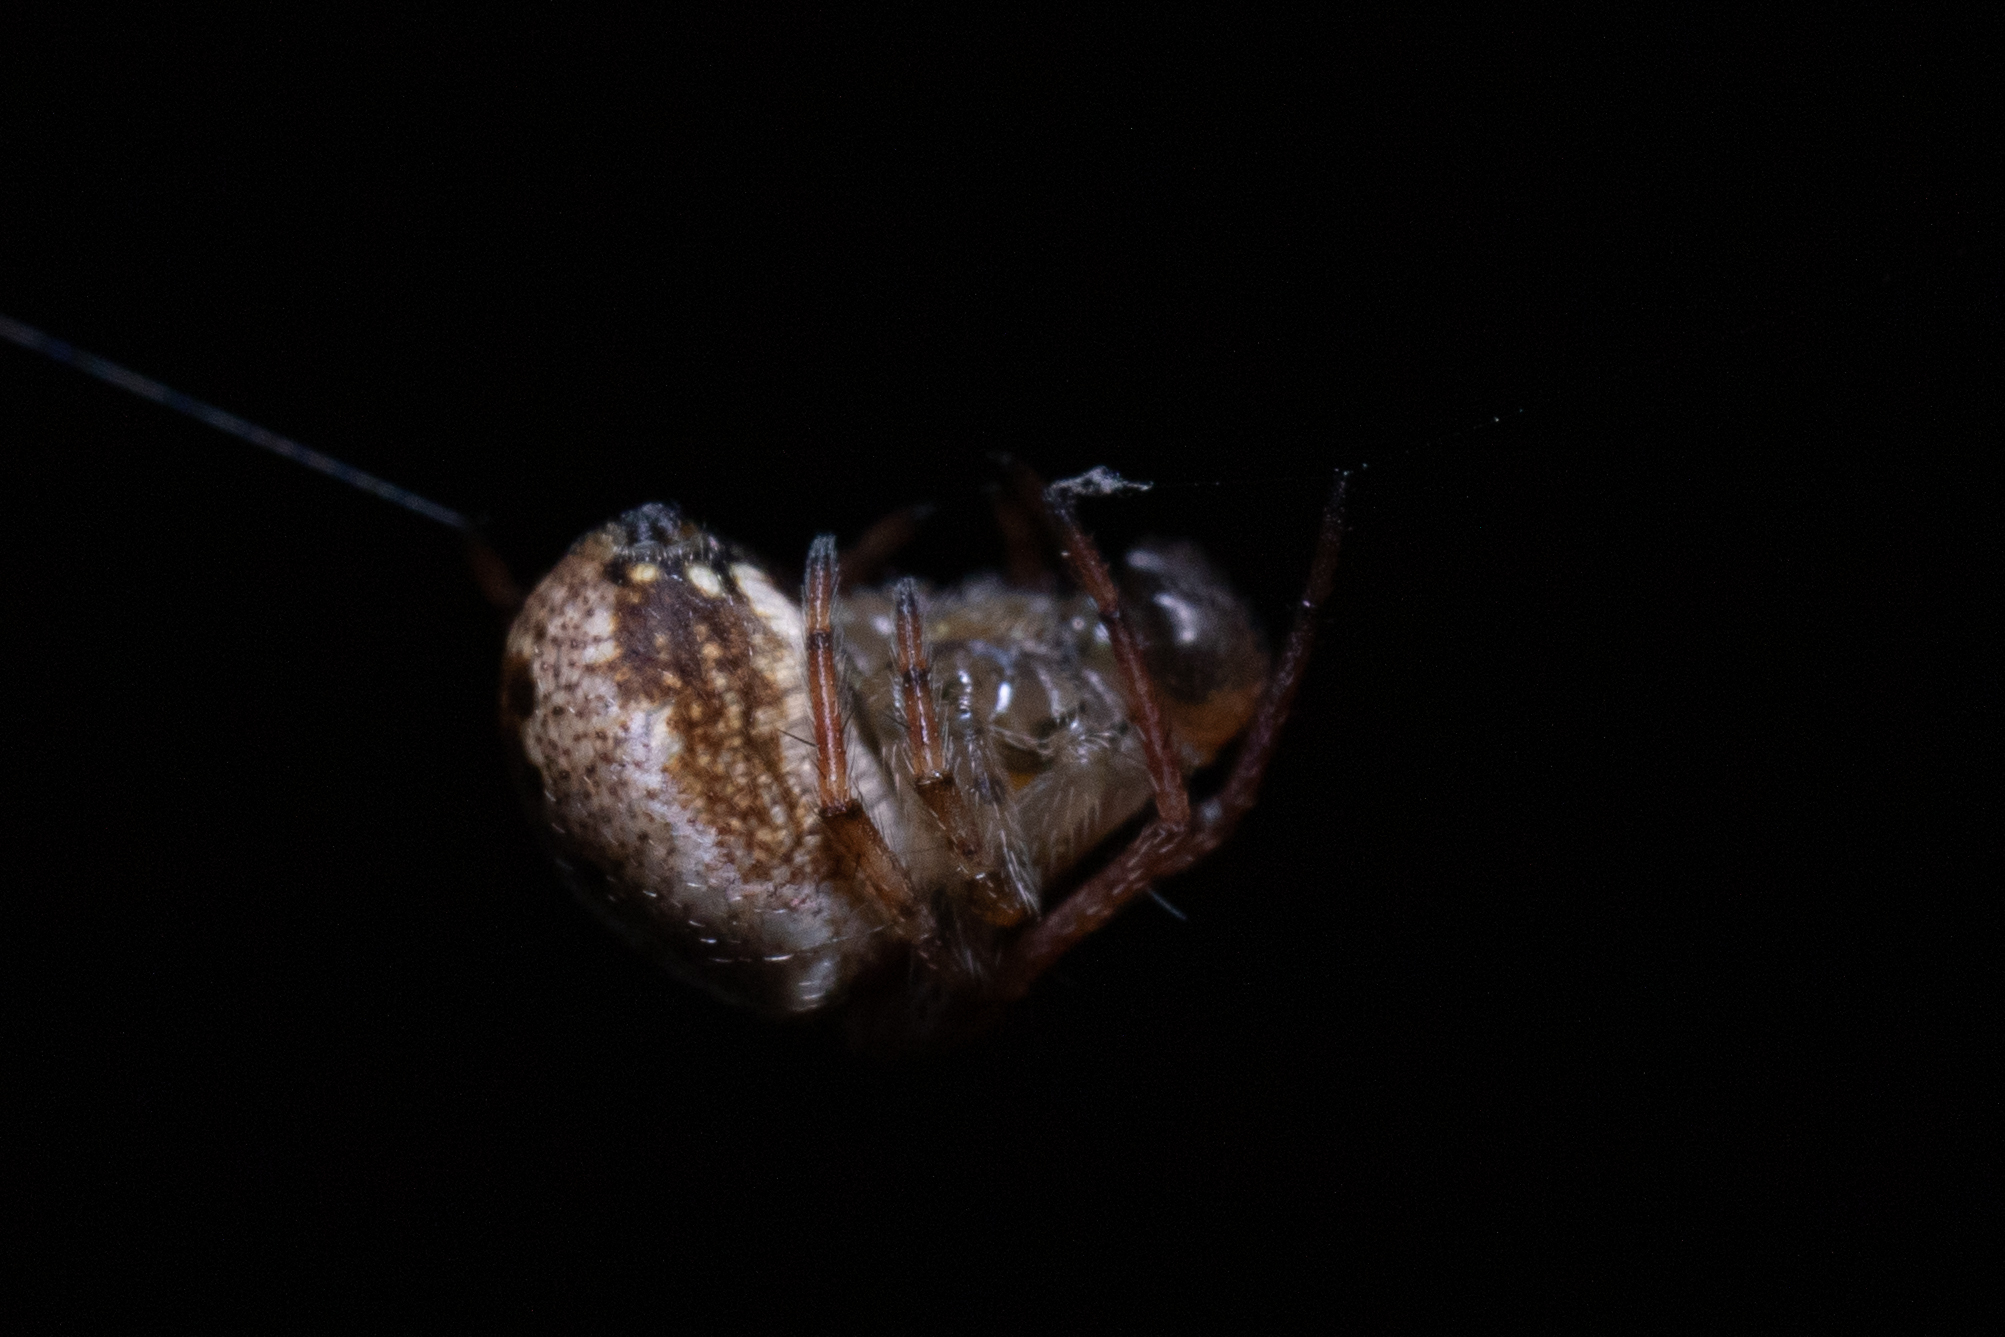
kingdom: Animalia
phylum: Arthropoda
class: Arachnida
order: Araneae
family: Araneidae
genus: Zilla
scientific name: Zilla diodia
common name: Zilla diodia
